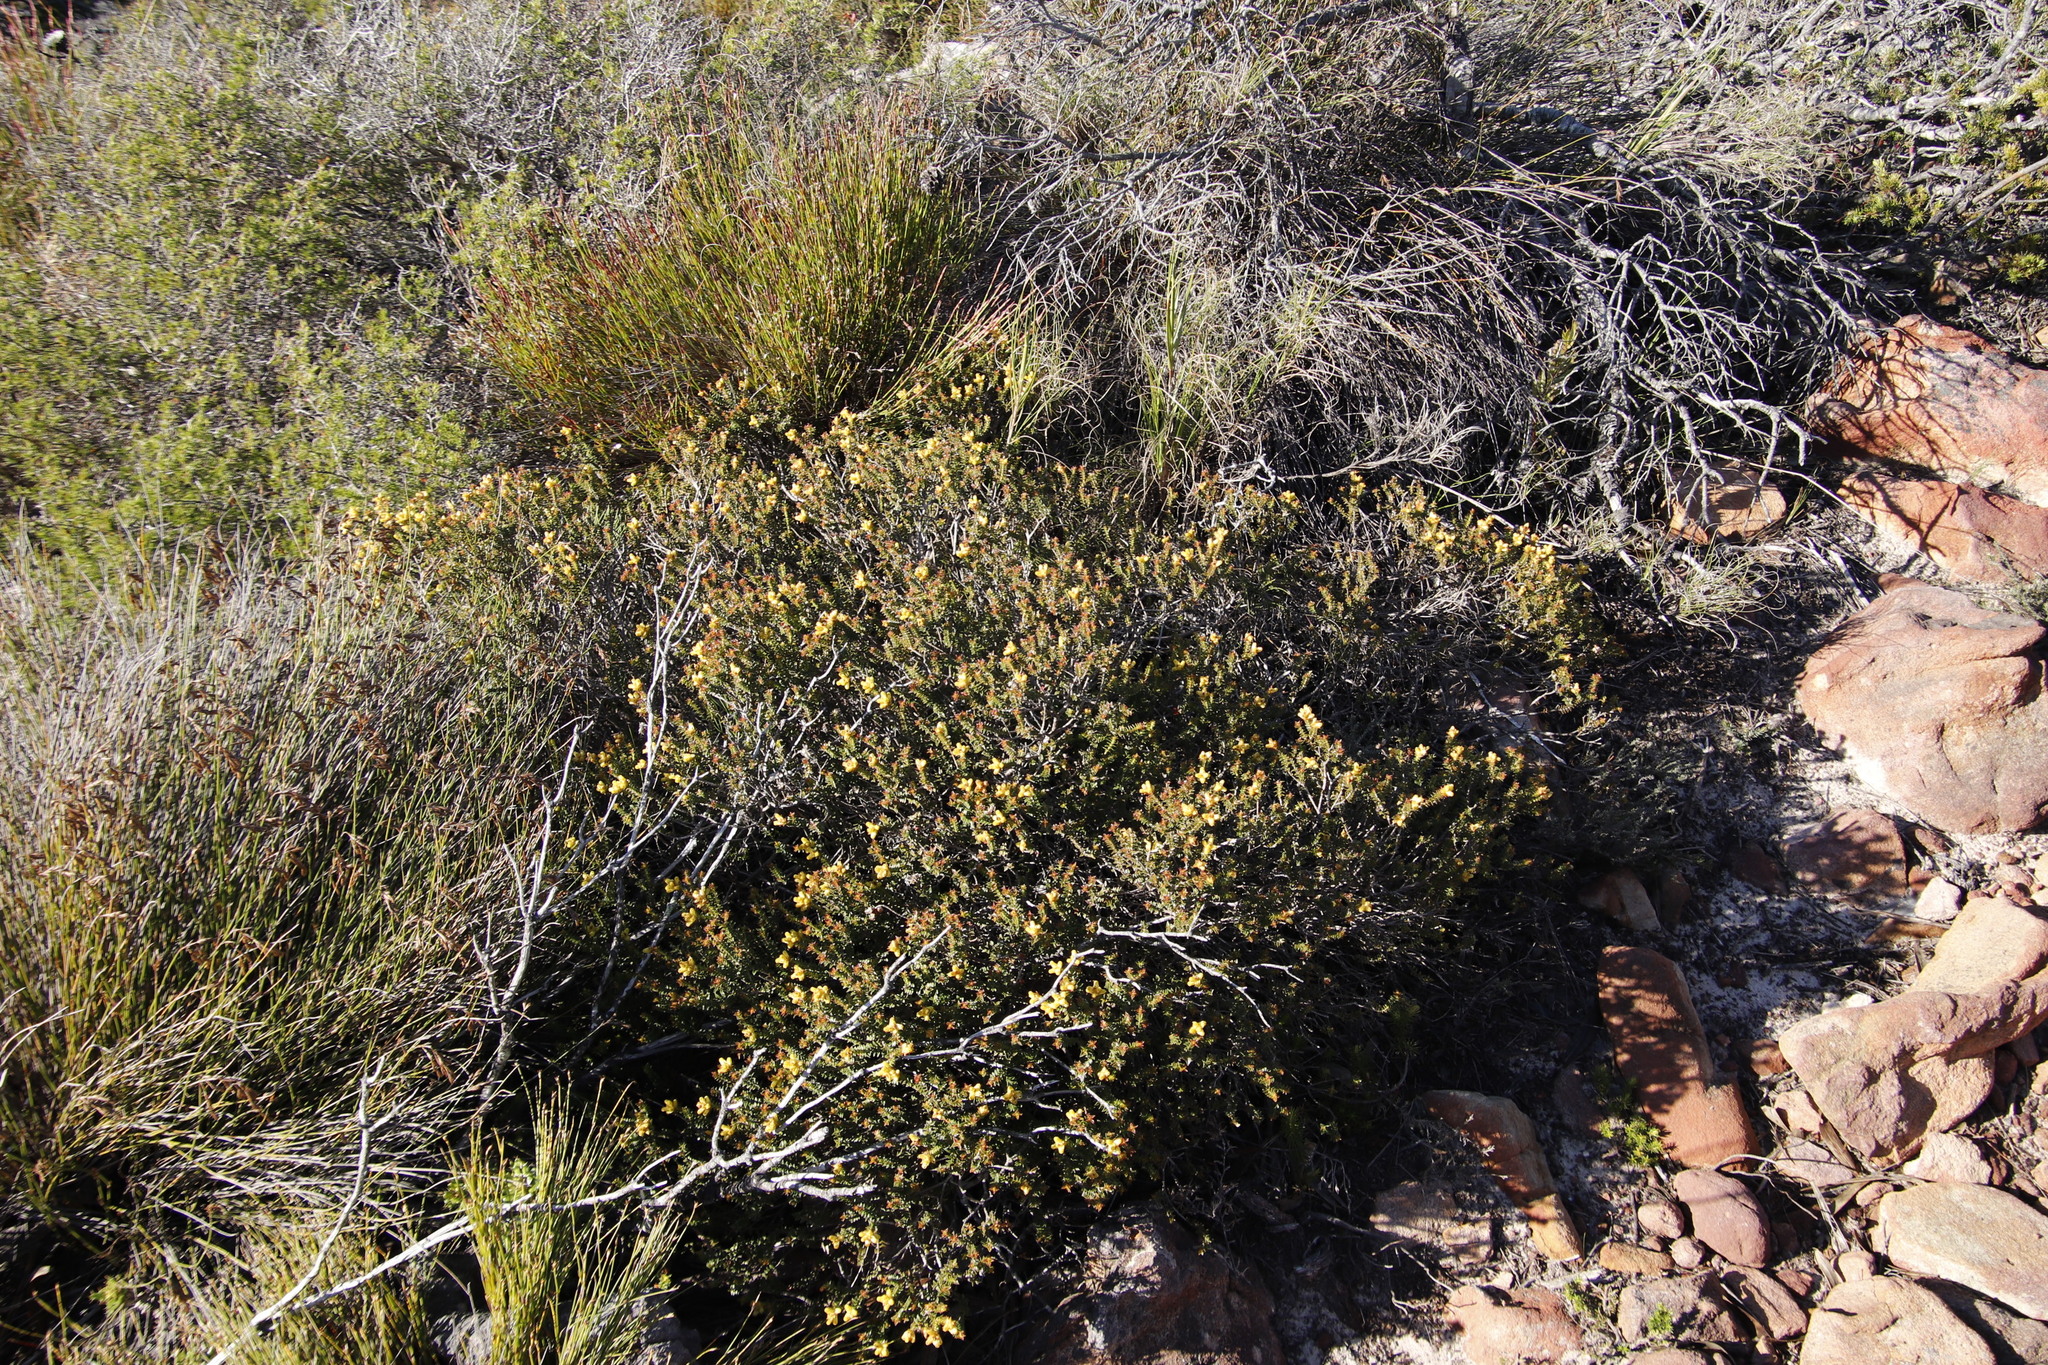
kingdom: Plantae
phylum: Tracheophyta
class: Magnoliopsida
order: Myrtales
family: Penaeaceae
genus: Penaea
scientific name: Penaea mucronata
